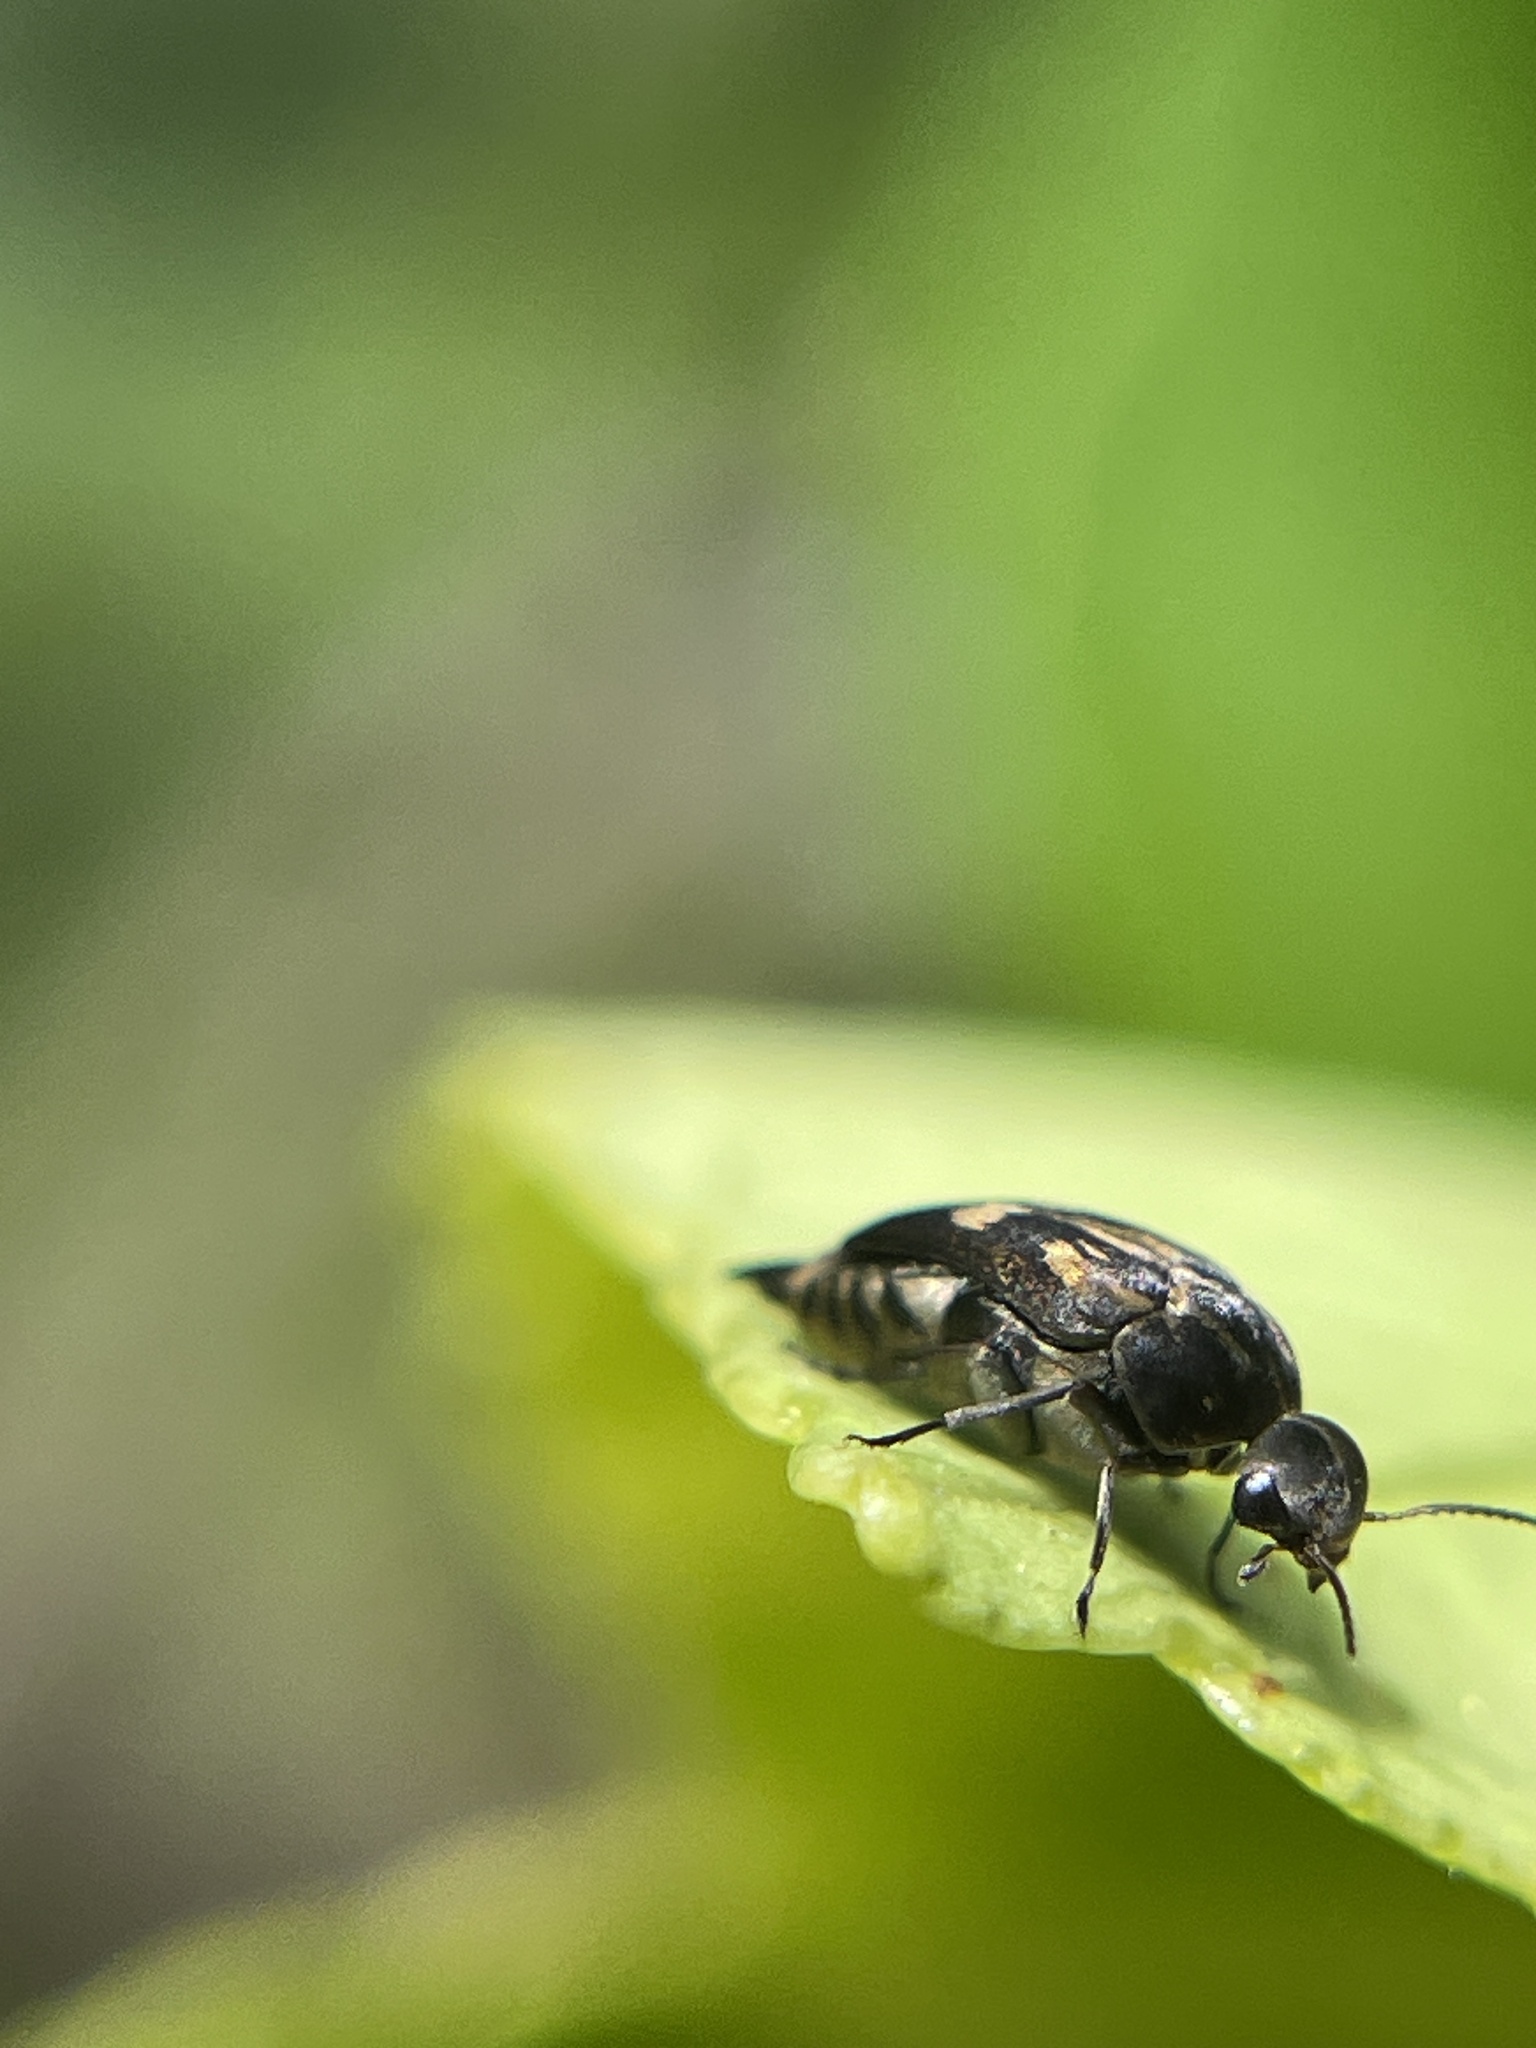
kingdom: Animalia
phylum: Arthropoda
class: Insecta
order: Coleoptera
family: Mordellidae
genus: Zeamordella
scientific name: Zeamordella monacha
